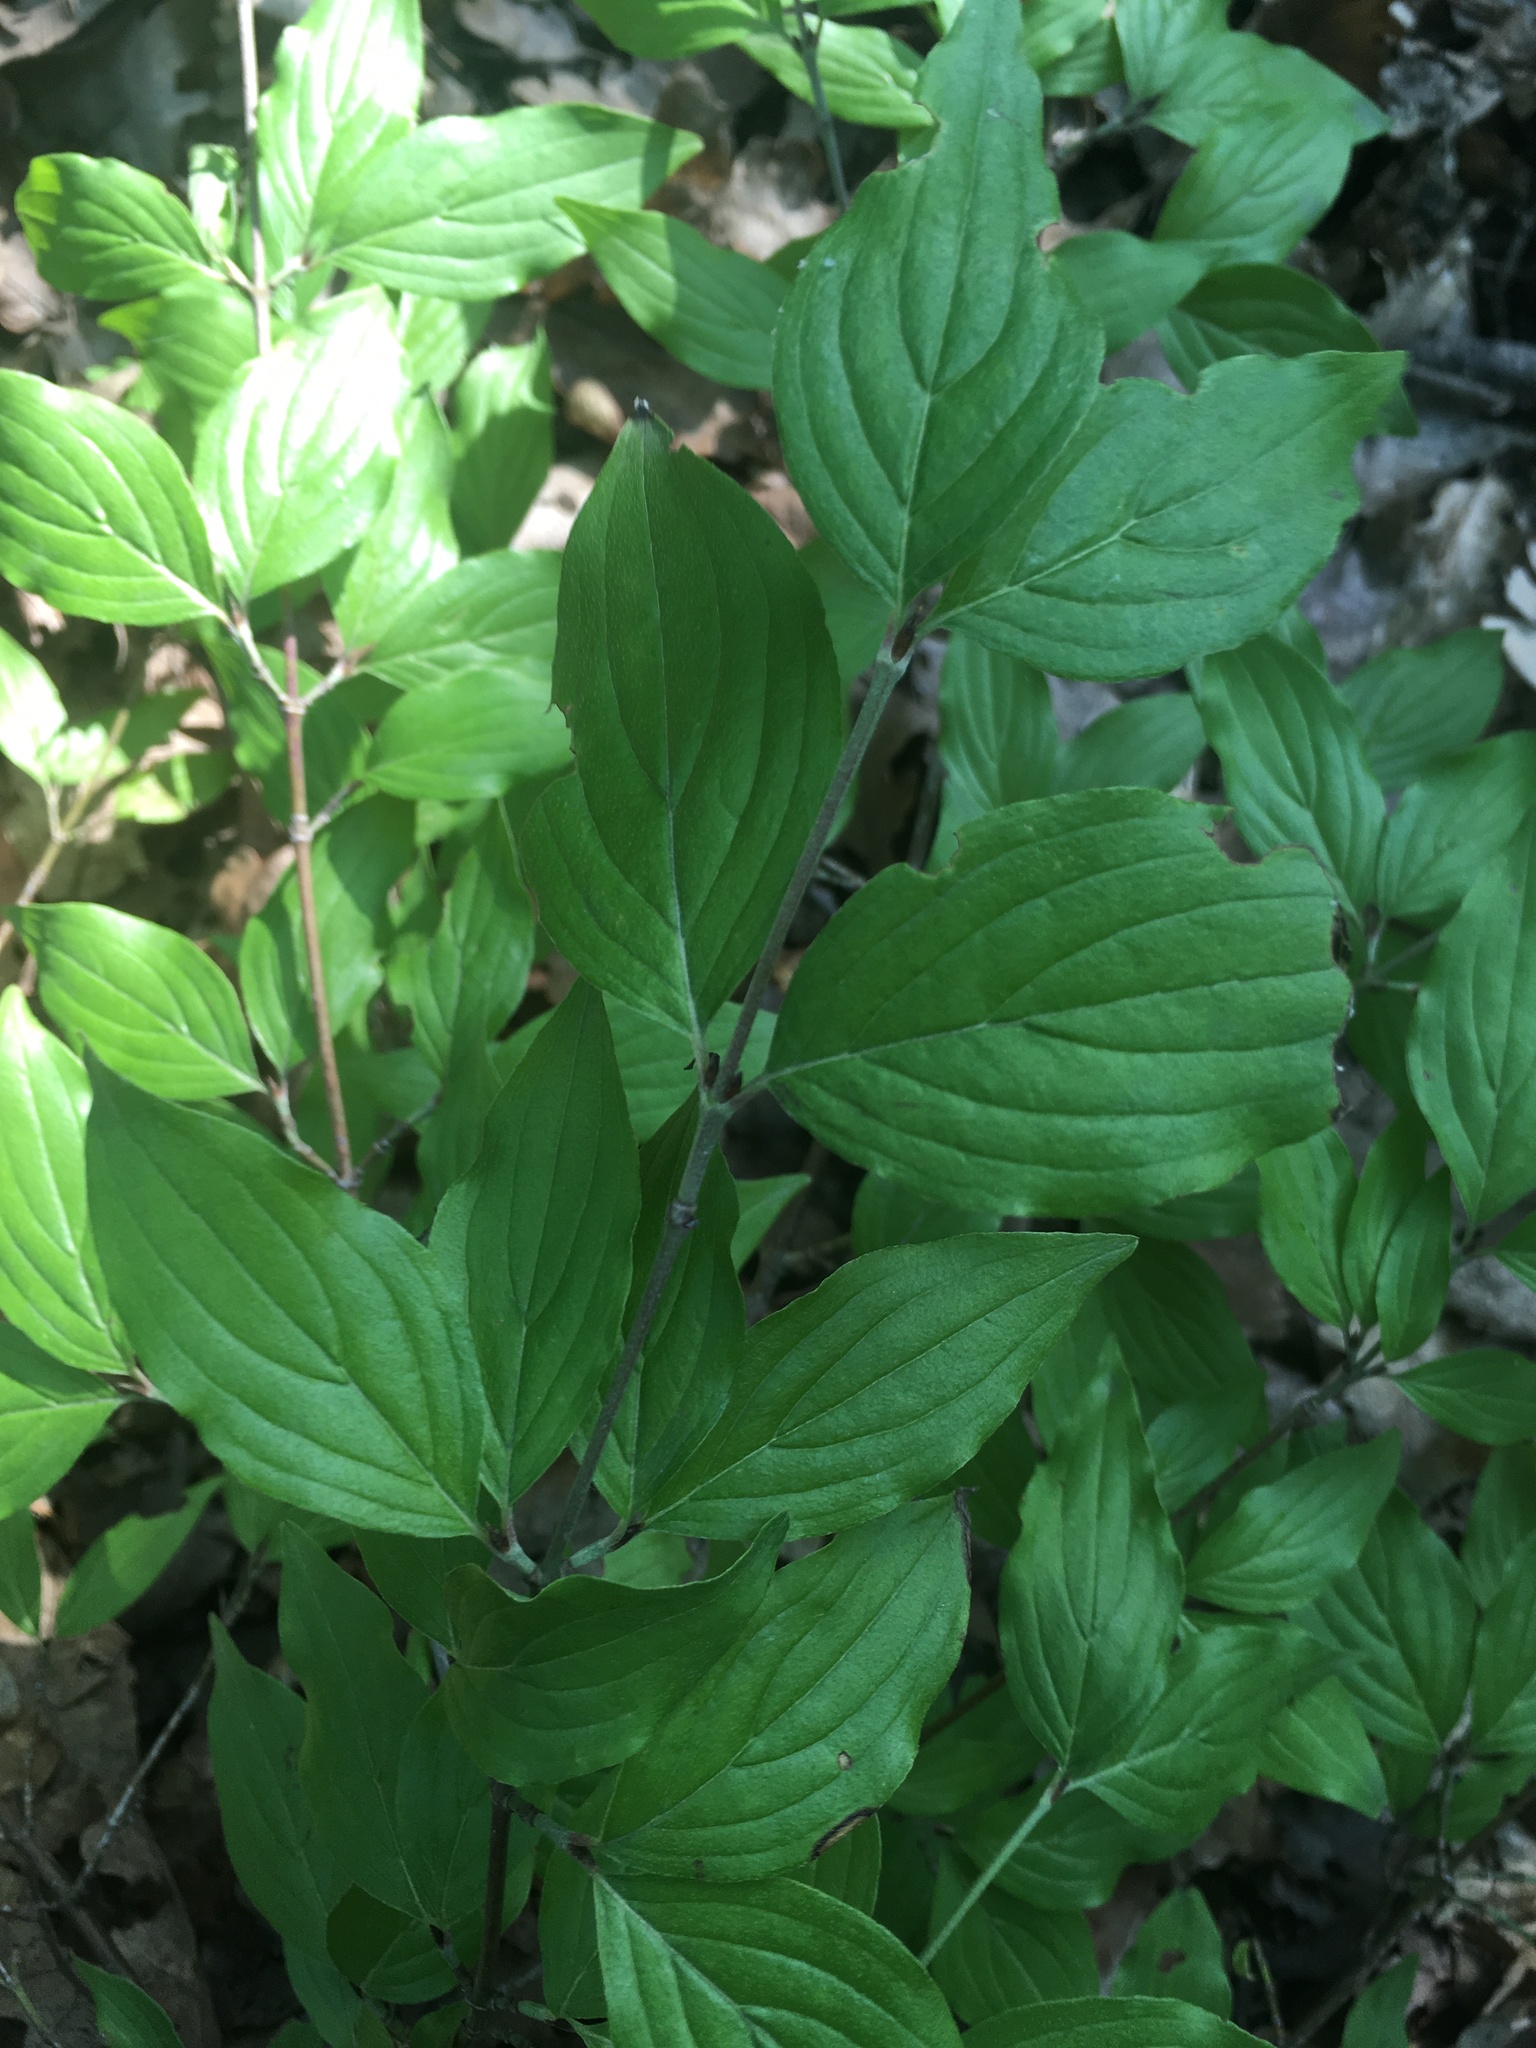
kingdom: Plantae
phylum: Tracheophyta
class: Magnoliopsida
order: Cornales
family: Cornaceae
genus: Cornus
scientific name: Cornus mas
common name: Cornelian-cherry
